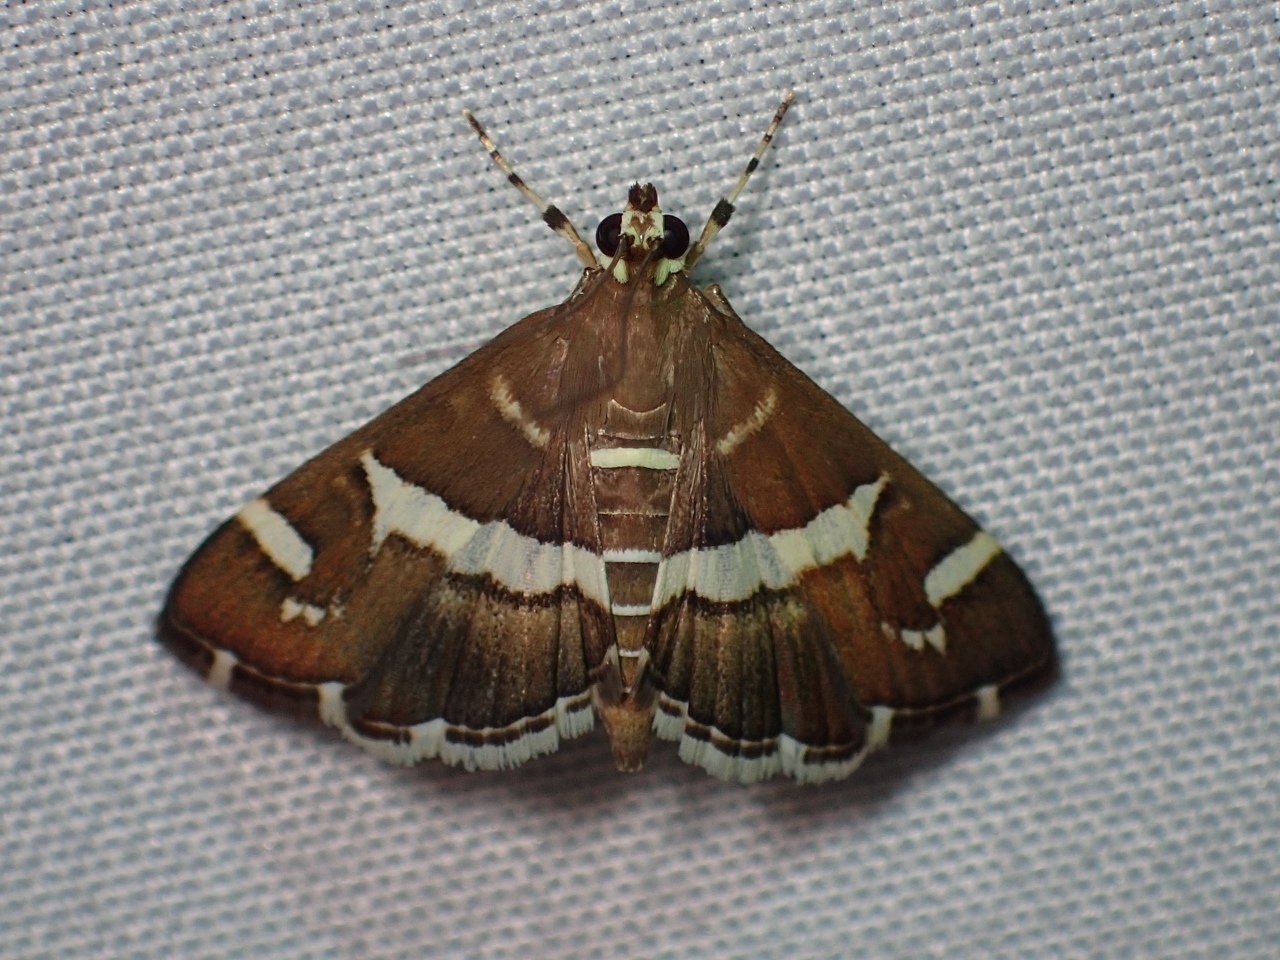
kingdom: Animalia
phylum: Arthropoda
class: Insecta
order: Lepidoptera
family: Crambidae
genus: Spoladea
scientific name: Spoladea recurvalis
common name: Beet webworm moth
